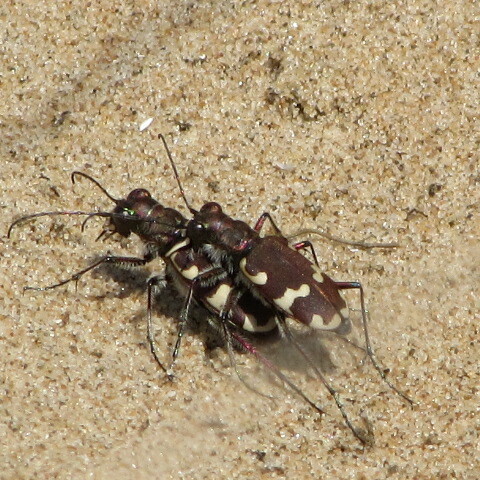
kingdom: Animalia
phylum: Arthropoda
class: Insecta
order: Coleoptera
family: Carabidae
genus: Cicindela
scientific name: Cicindela hybrida
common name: Northern dune tiger beetle
